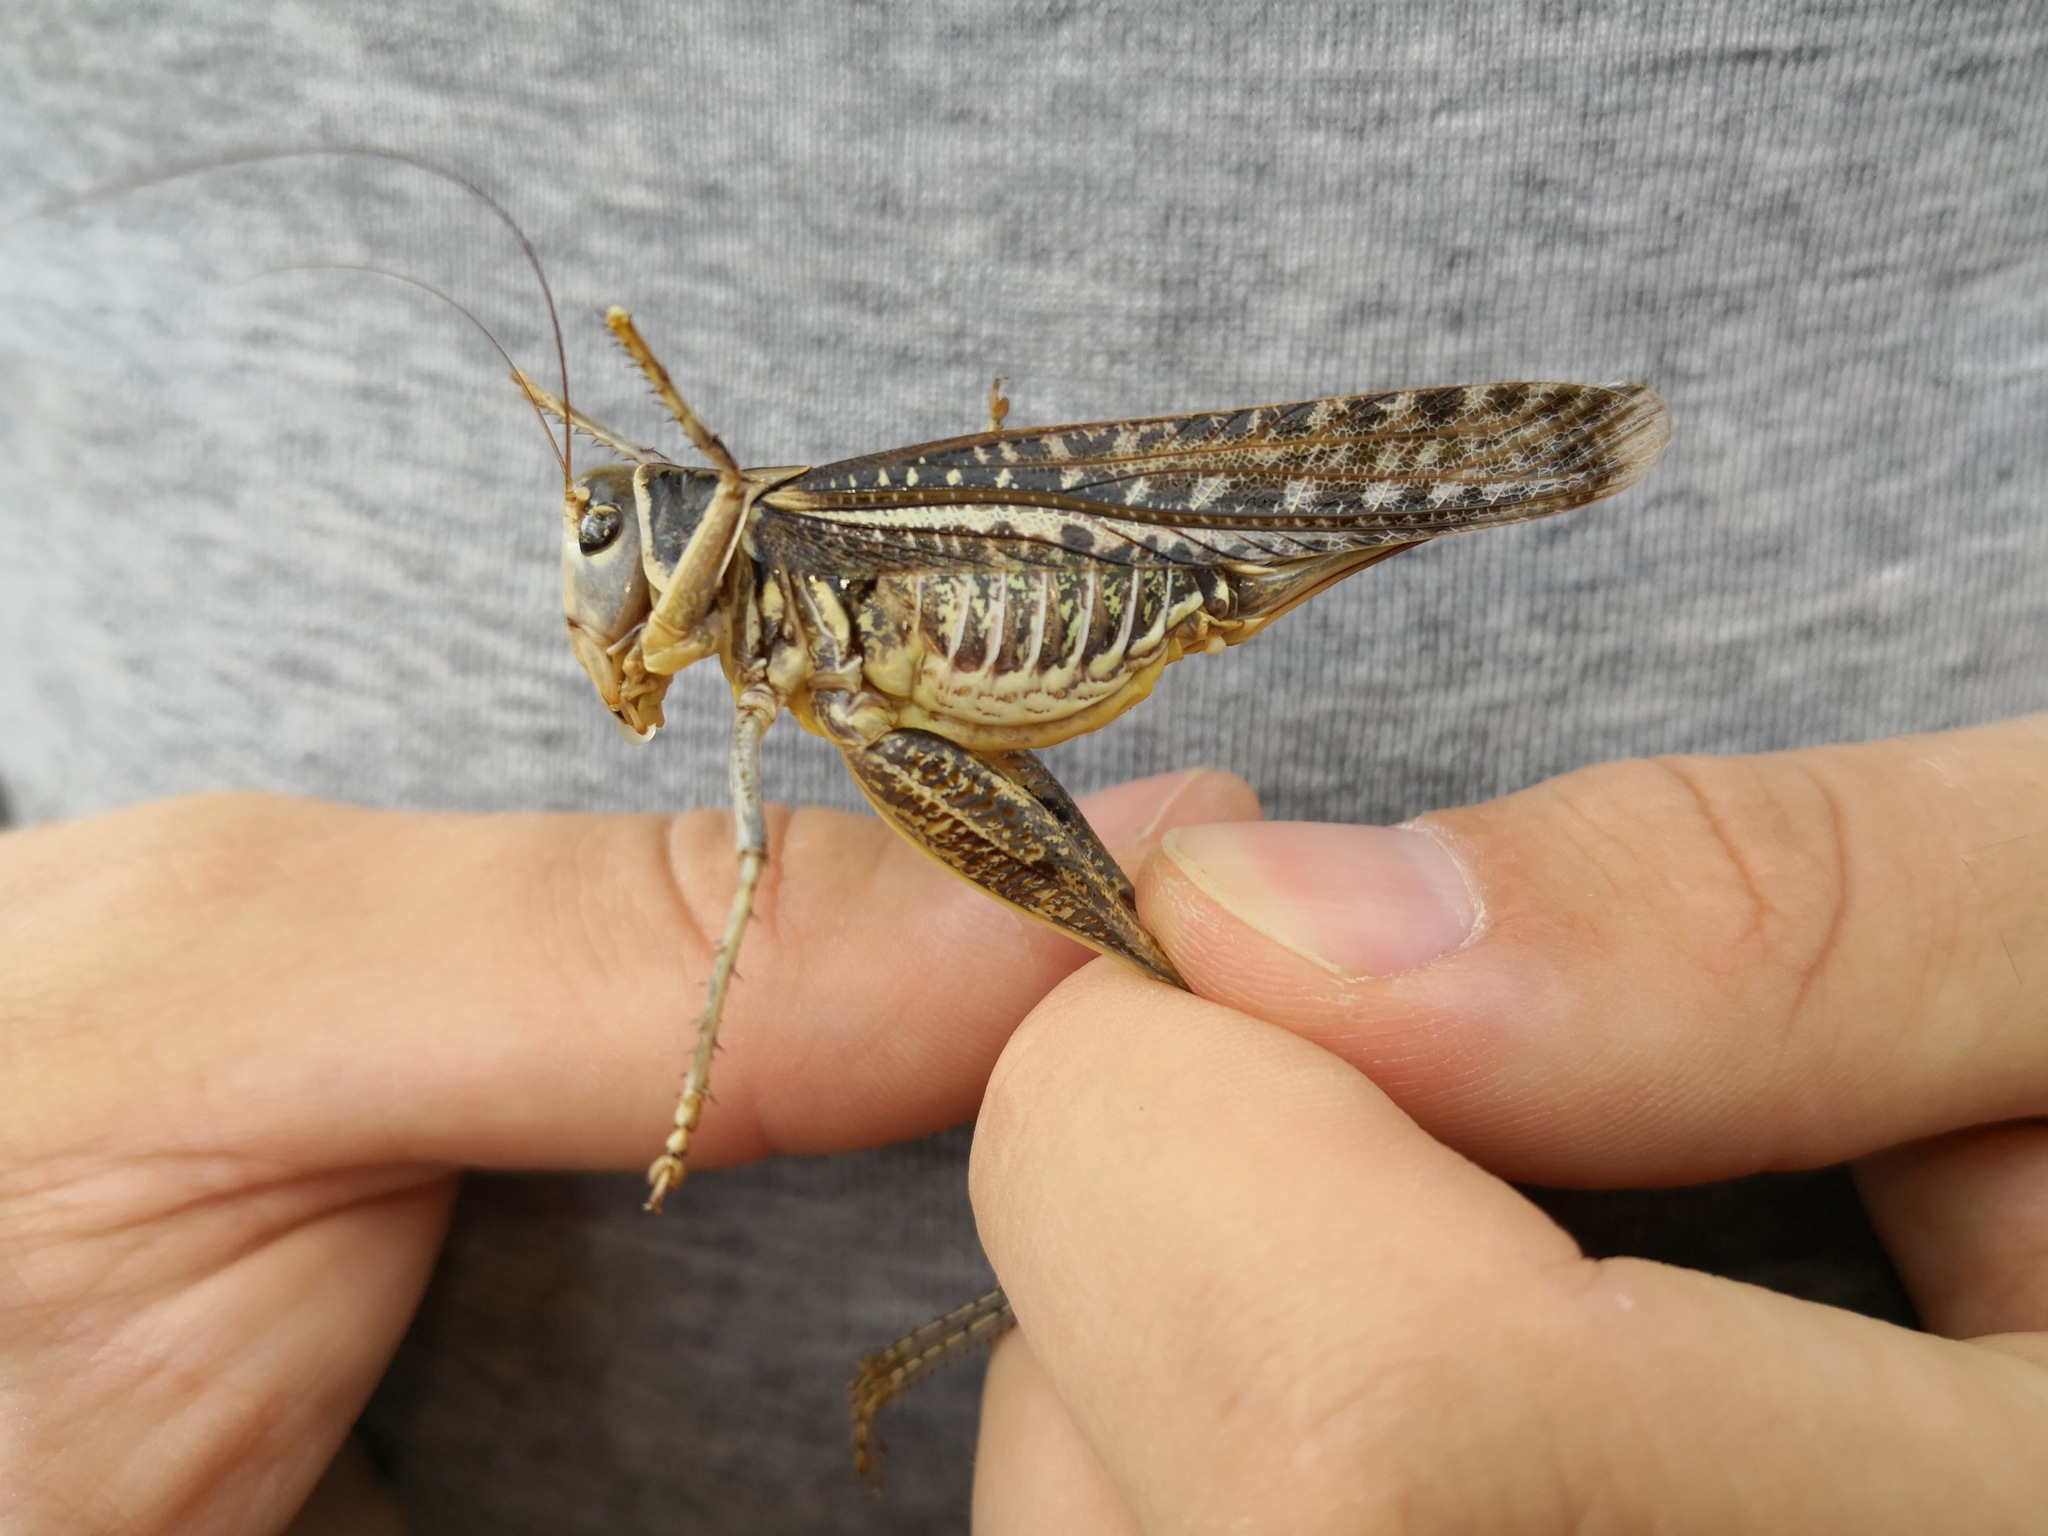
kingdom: Animalia
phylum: Arthropoda
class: Insecta
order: Orthoptera
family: Tettigoniidae
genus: Decticus
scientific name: Decticus albifrons
